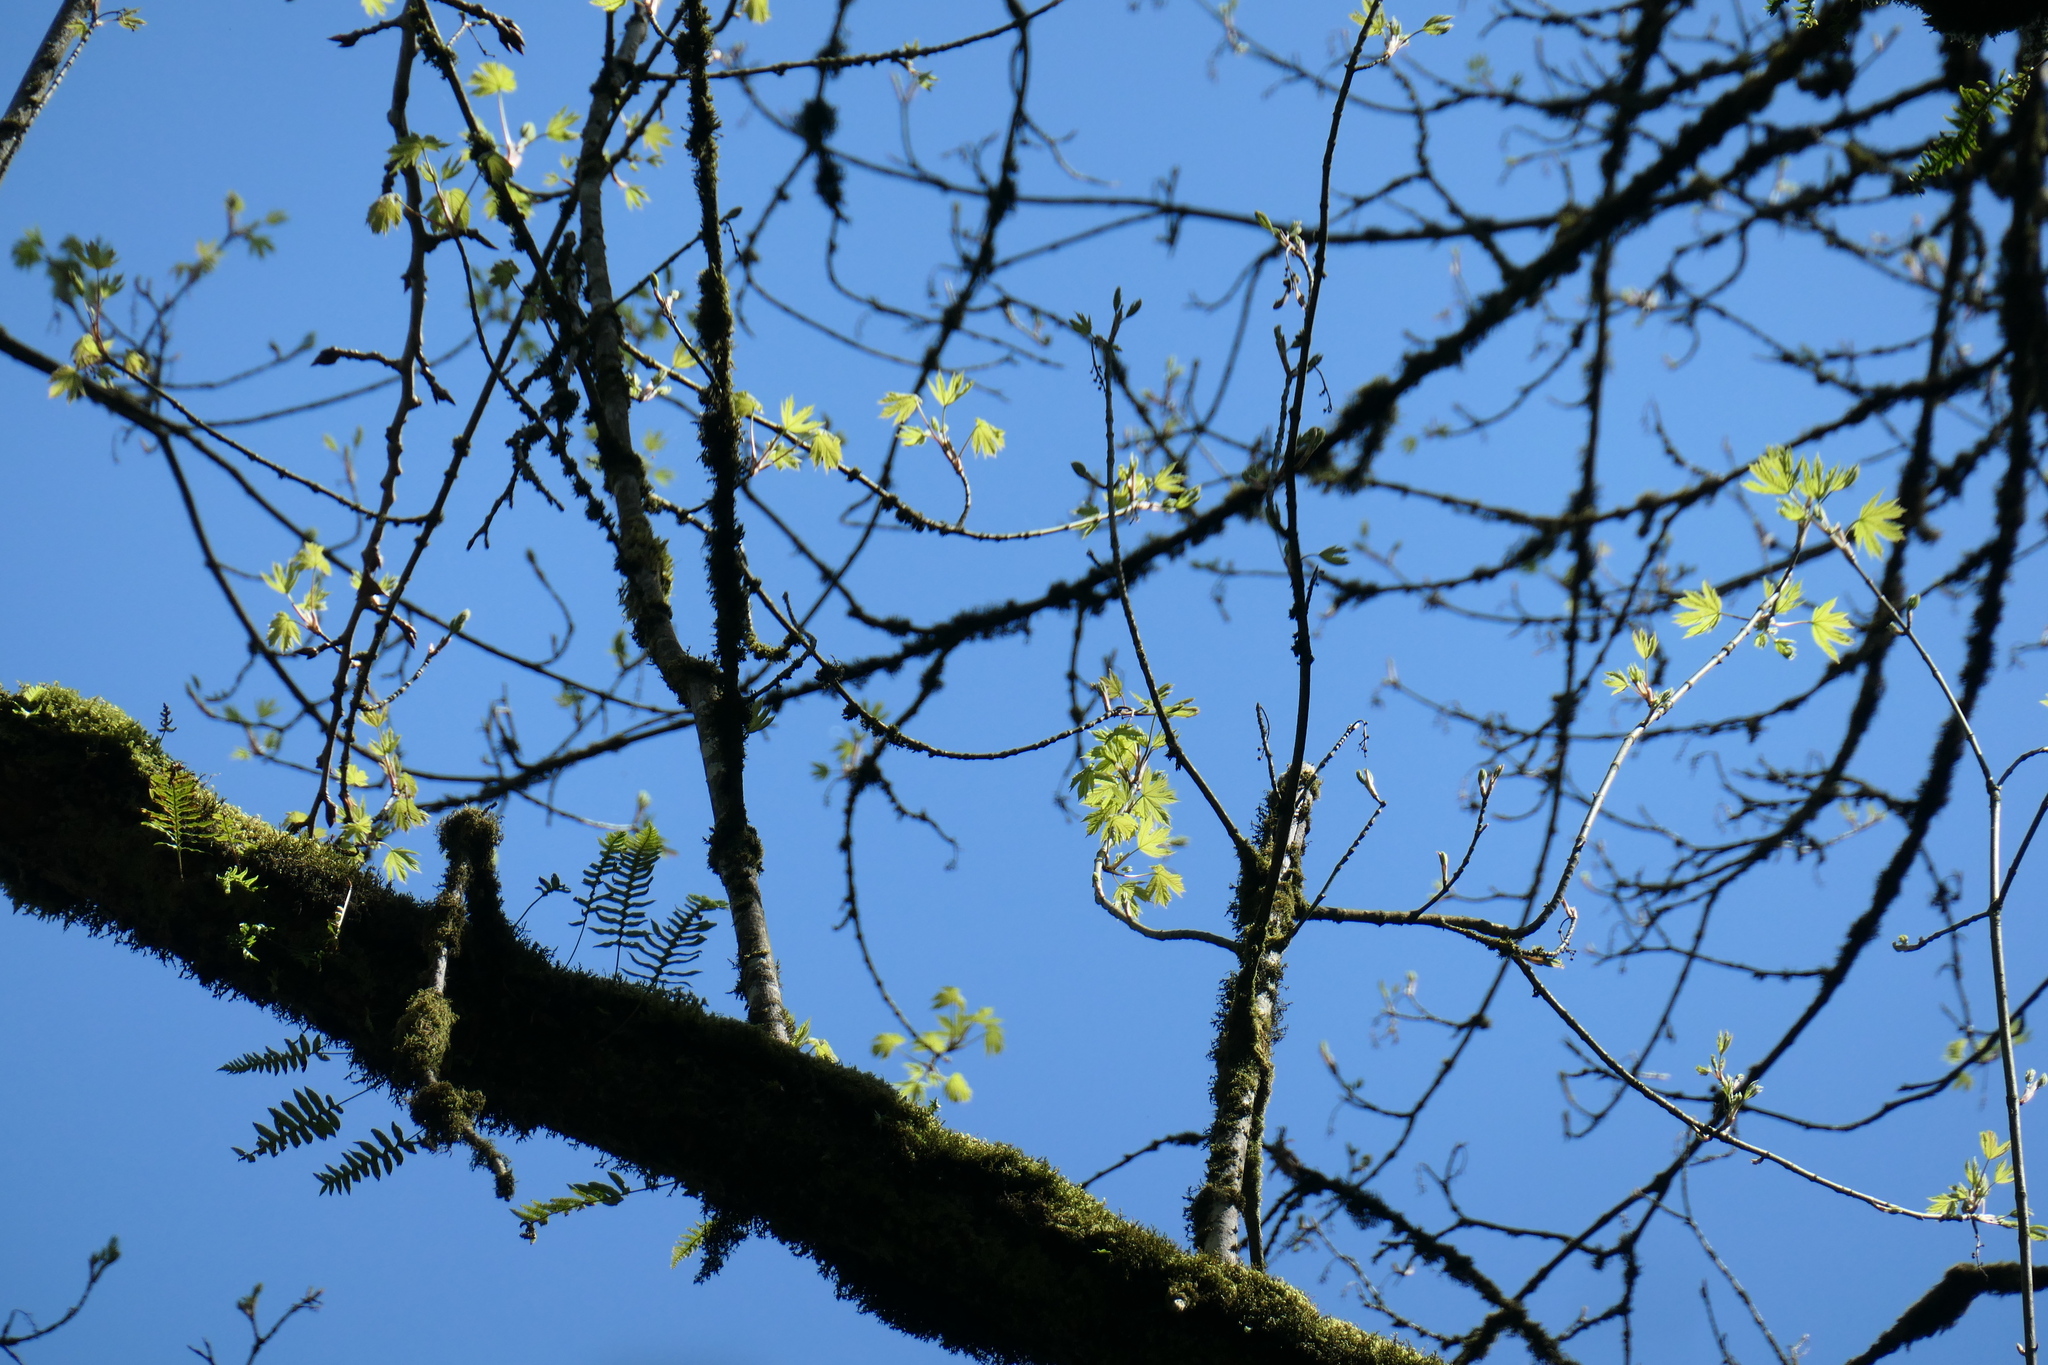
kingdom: Plantae
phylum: Tracheophyta
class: Magnoliopsida
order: Sapindales
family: Sapindaceae
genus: Acer
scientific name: Acer macrophyllum
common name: Oregon maple
